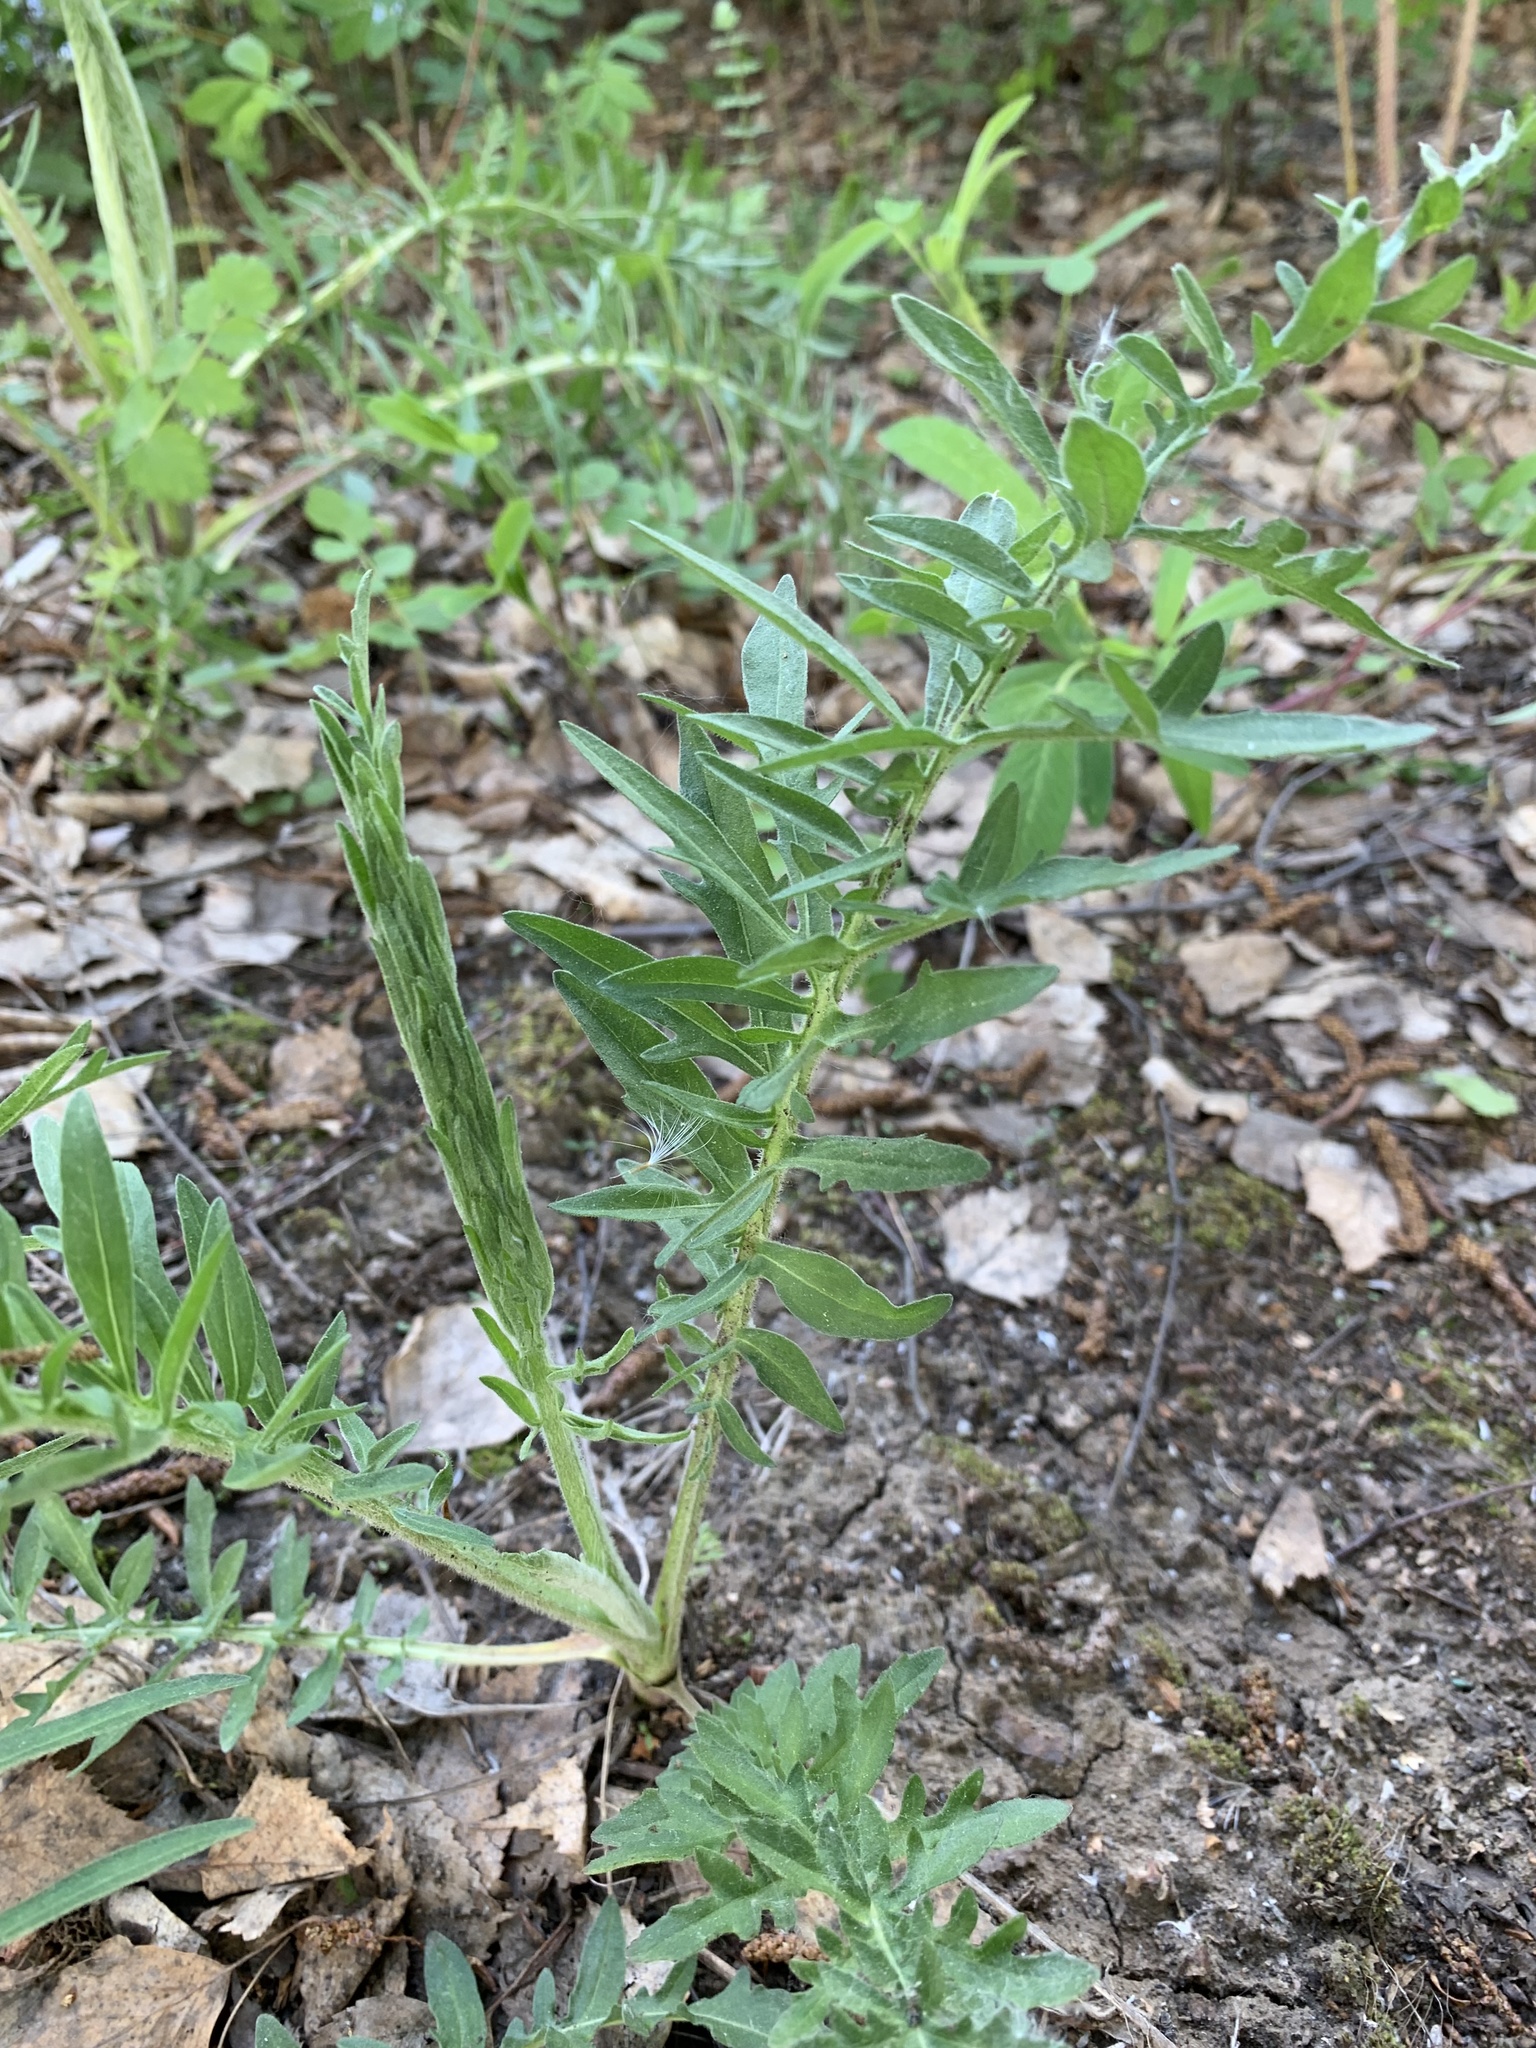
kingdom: Plantae
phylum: Tracheophyta
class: Magnoliopsida
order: Asterales
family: Asteraceae
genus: Centaurea
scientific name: Centaurea scabiosa
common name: Greater knapweed
